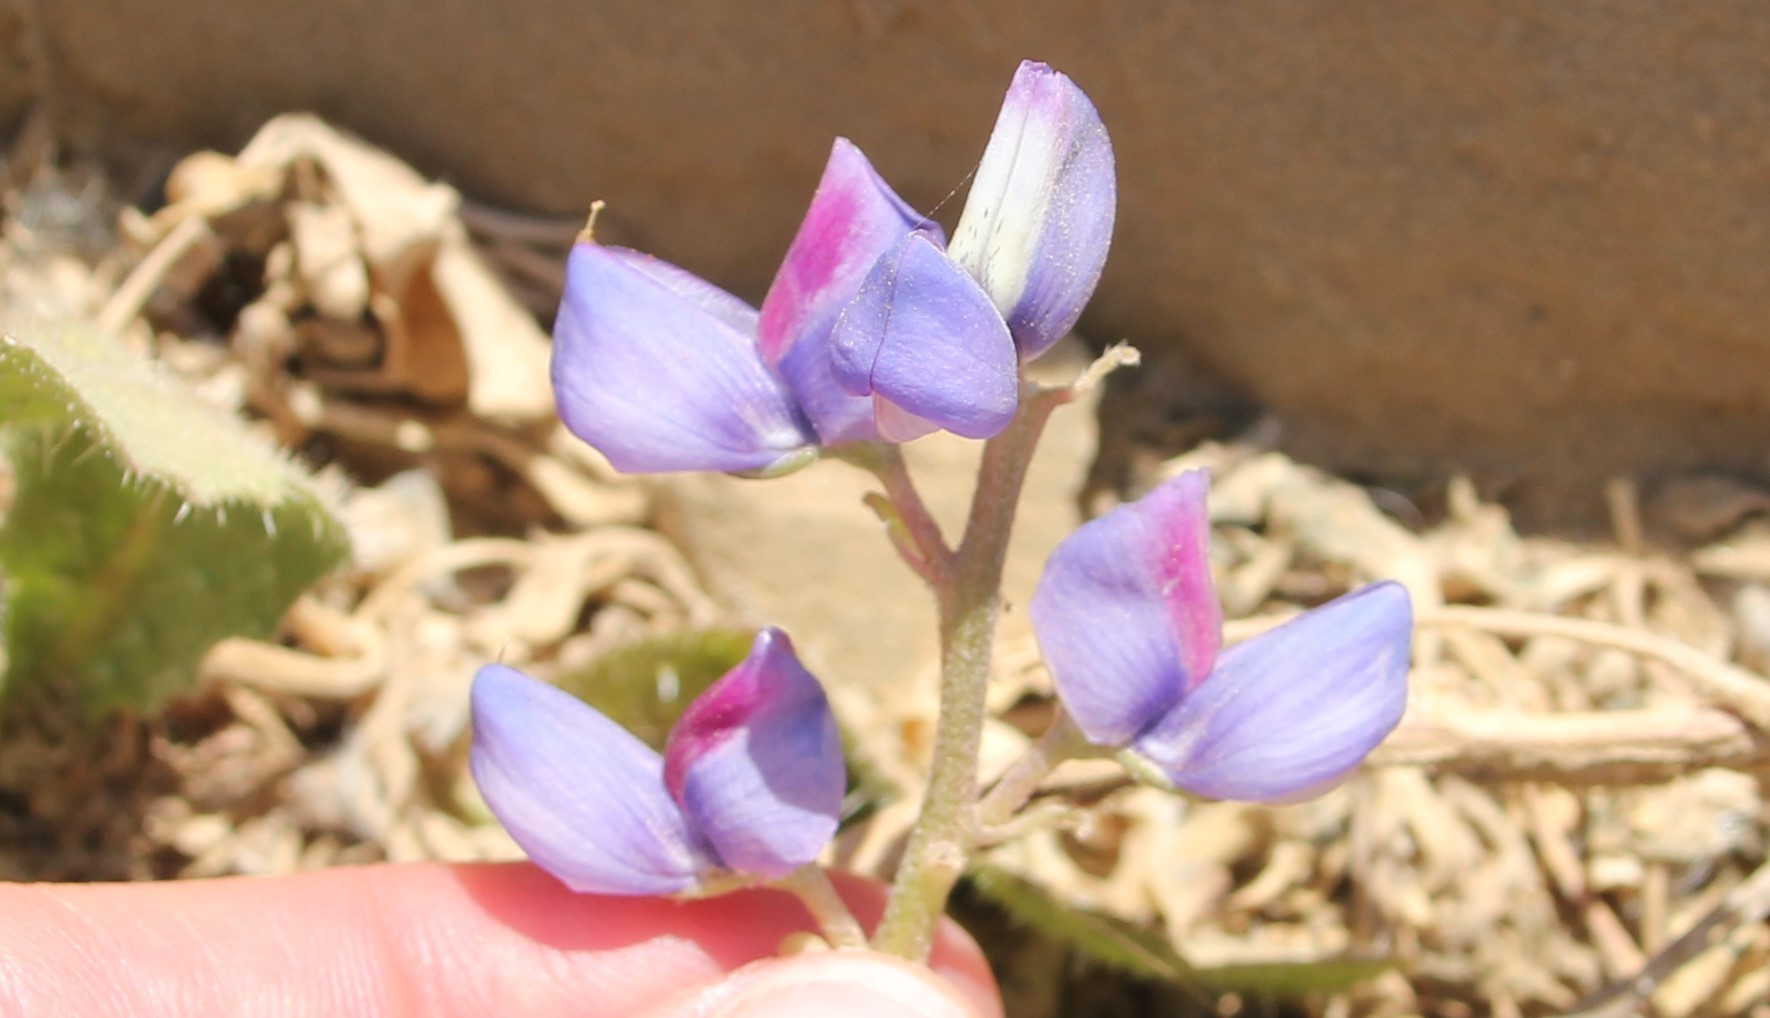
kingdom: Plantae
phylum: Tracheophyta
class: Magnoliopsida
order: Fabales
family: Fabaceae
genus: Lupinus
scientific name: Lupinus succulentus
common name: Arroyo lupine
